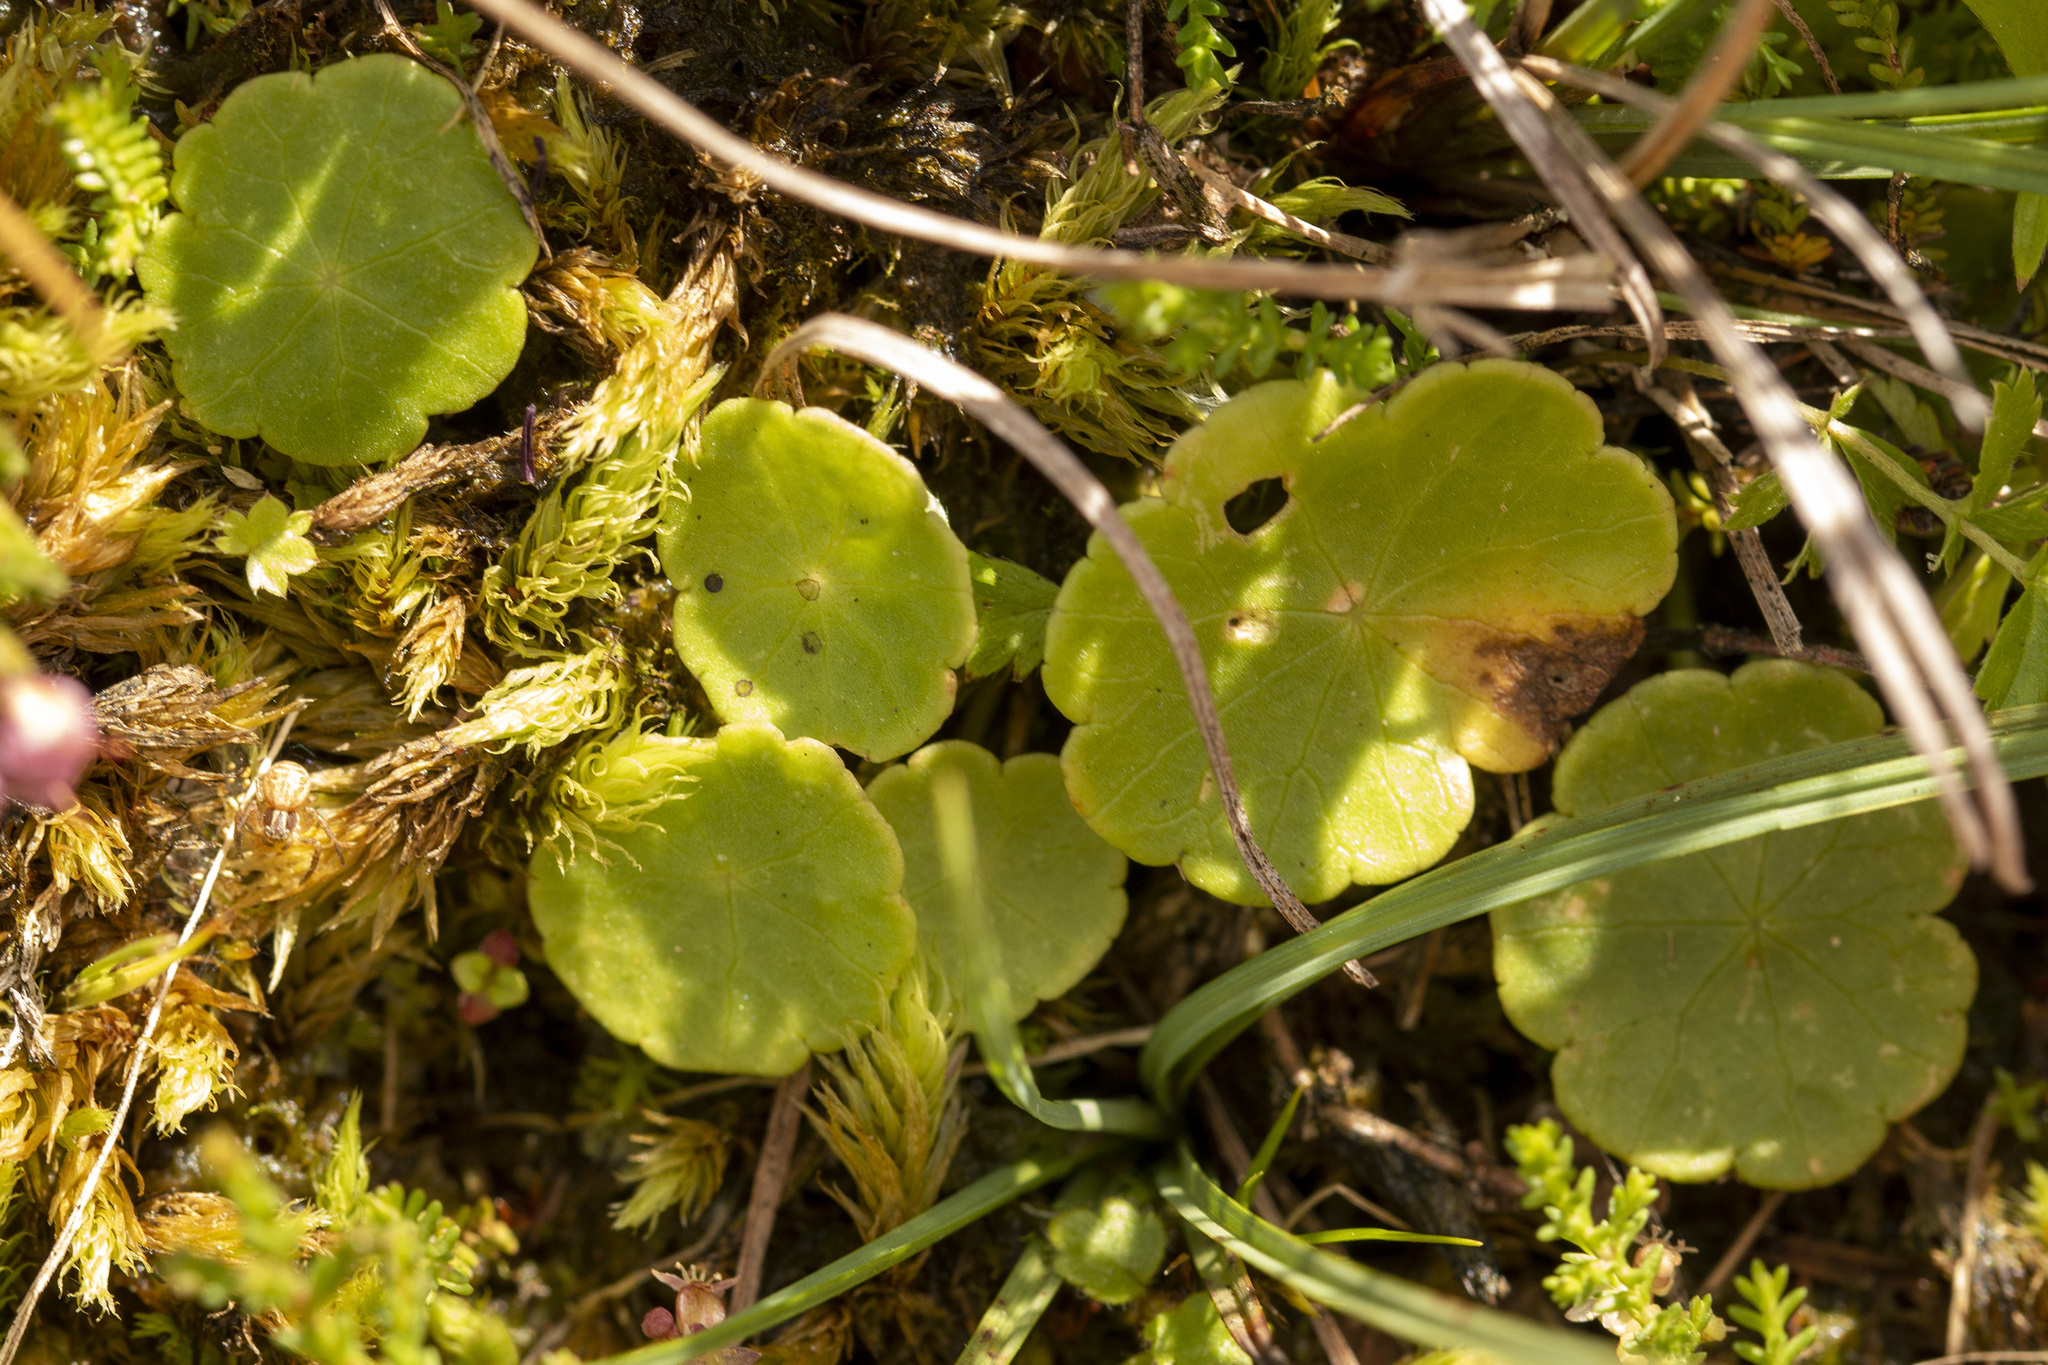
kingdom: Plantae
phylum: Tracheophyta
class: Magnoliopsida
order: Apiales
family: Araliaceae
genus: Hydrocotyle
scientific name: Hydrocotyle vulgaris
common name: Marsh pennywort
